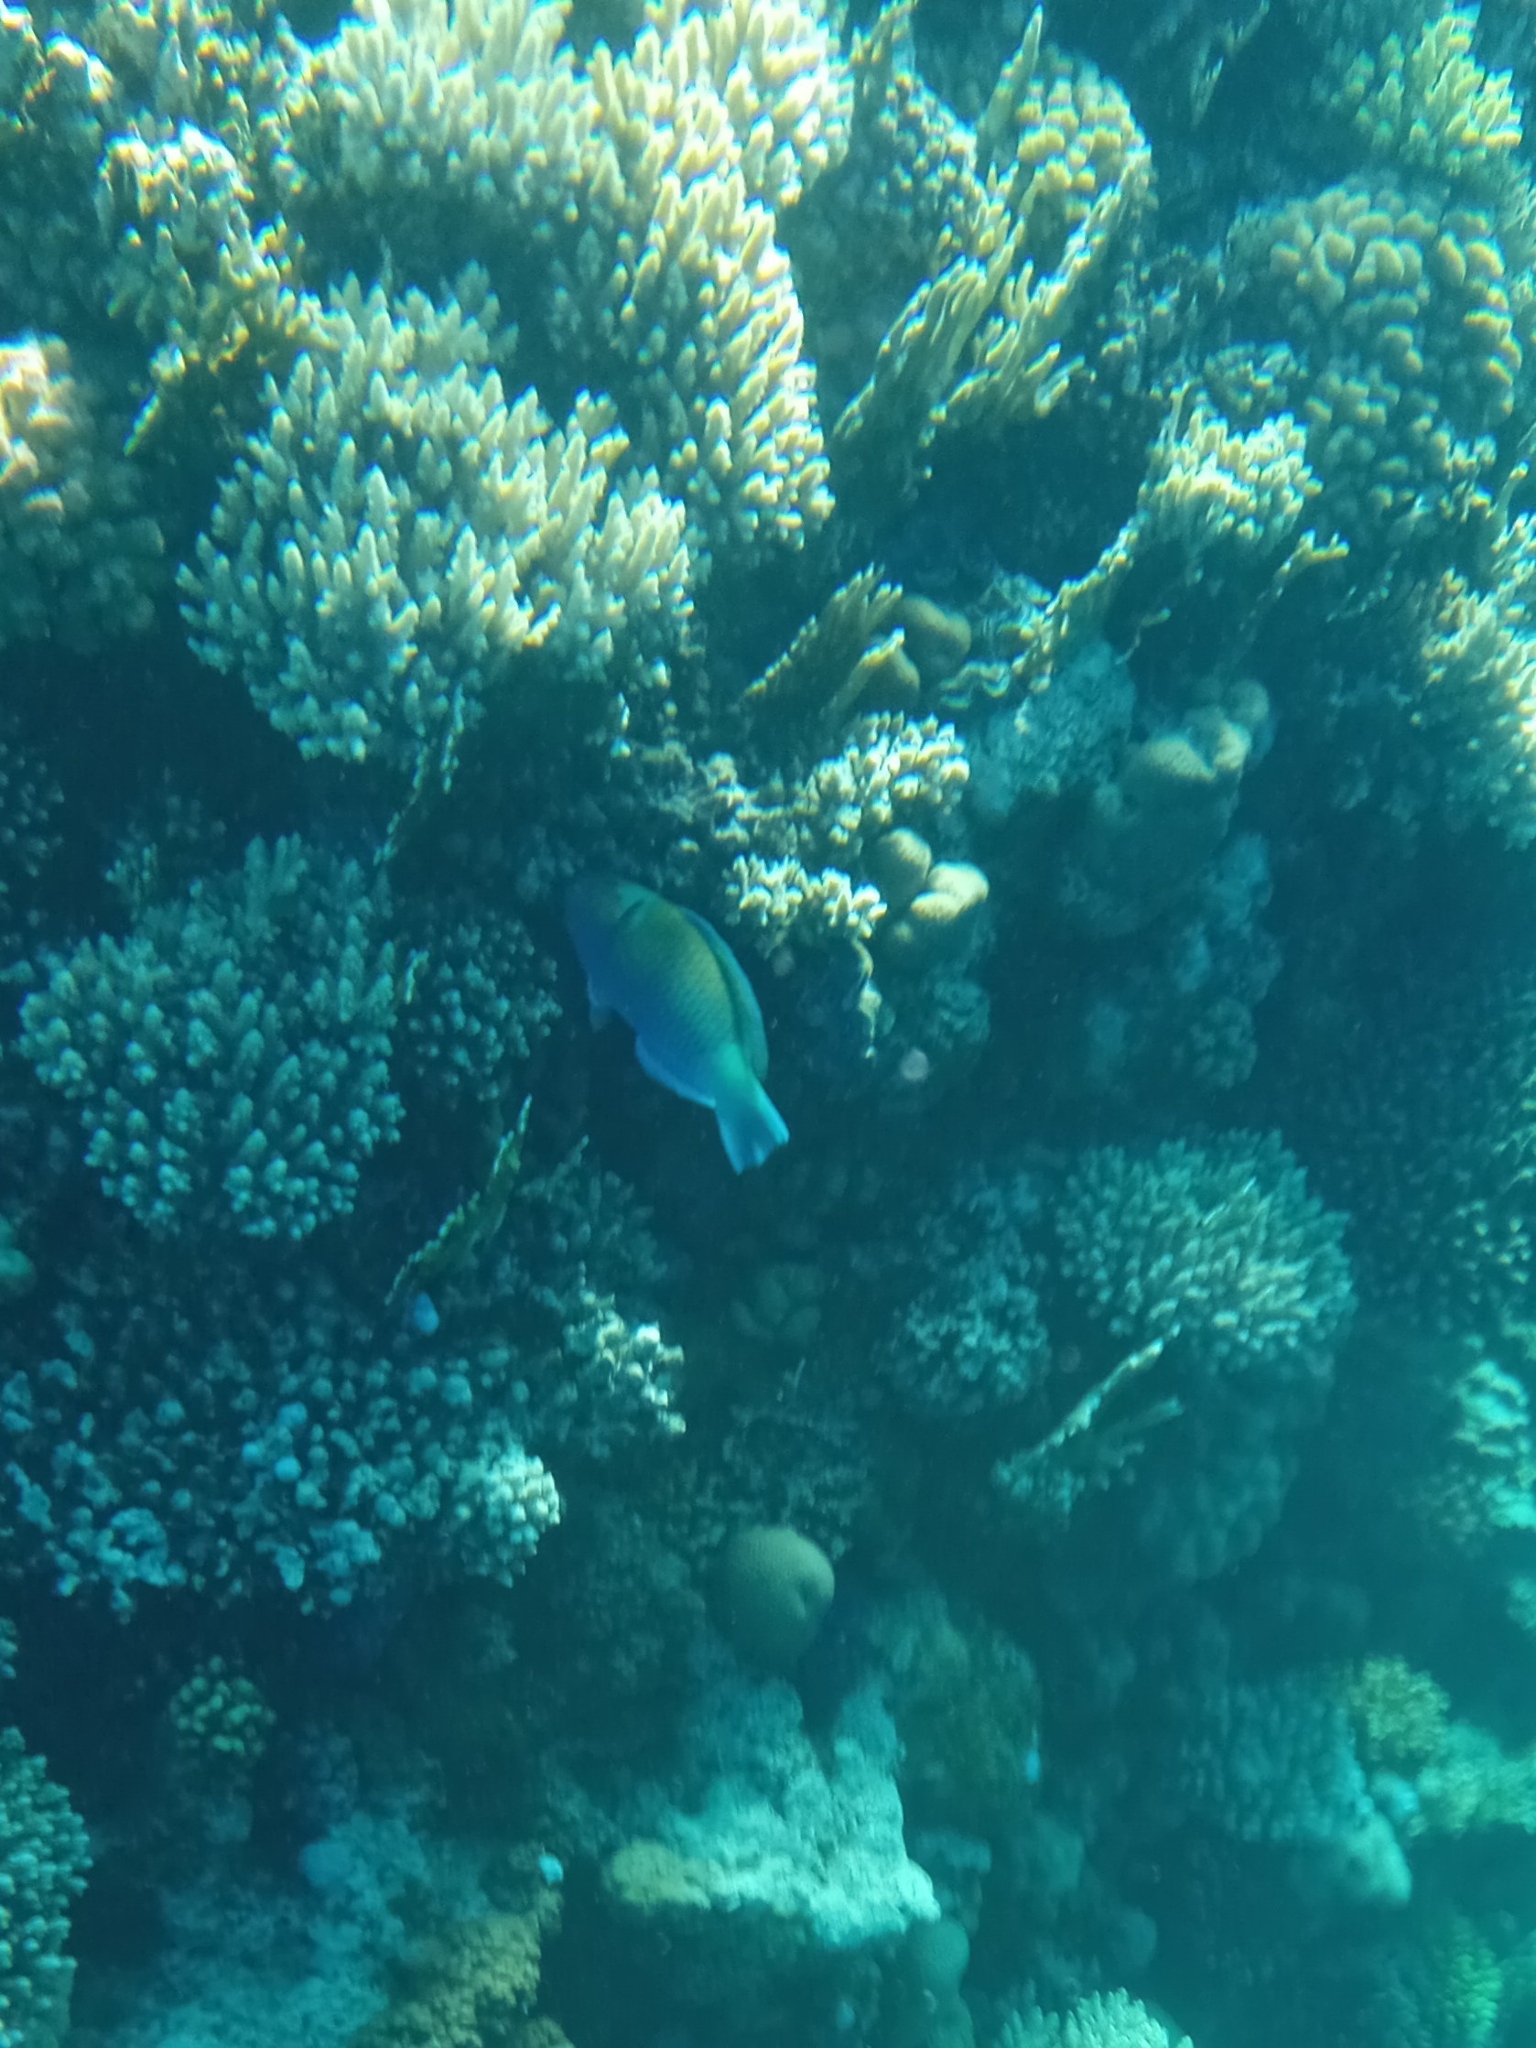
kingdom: Animalia
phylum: Chordata
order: Perciformes
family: Scaridae
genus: Chlorurus
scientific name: Chlorurus sordidus
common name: Bullethead parrotfish
